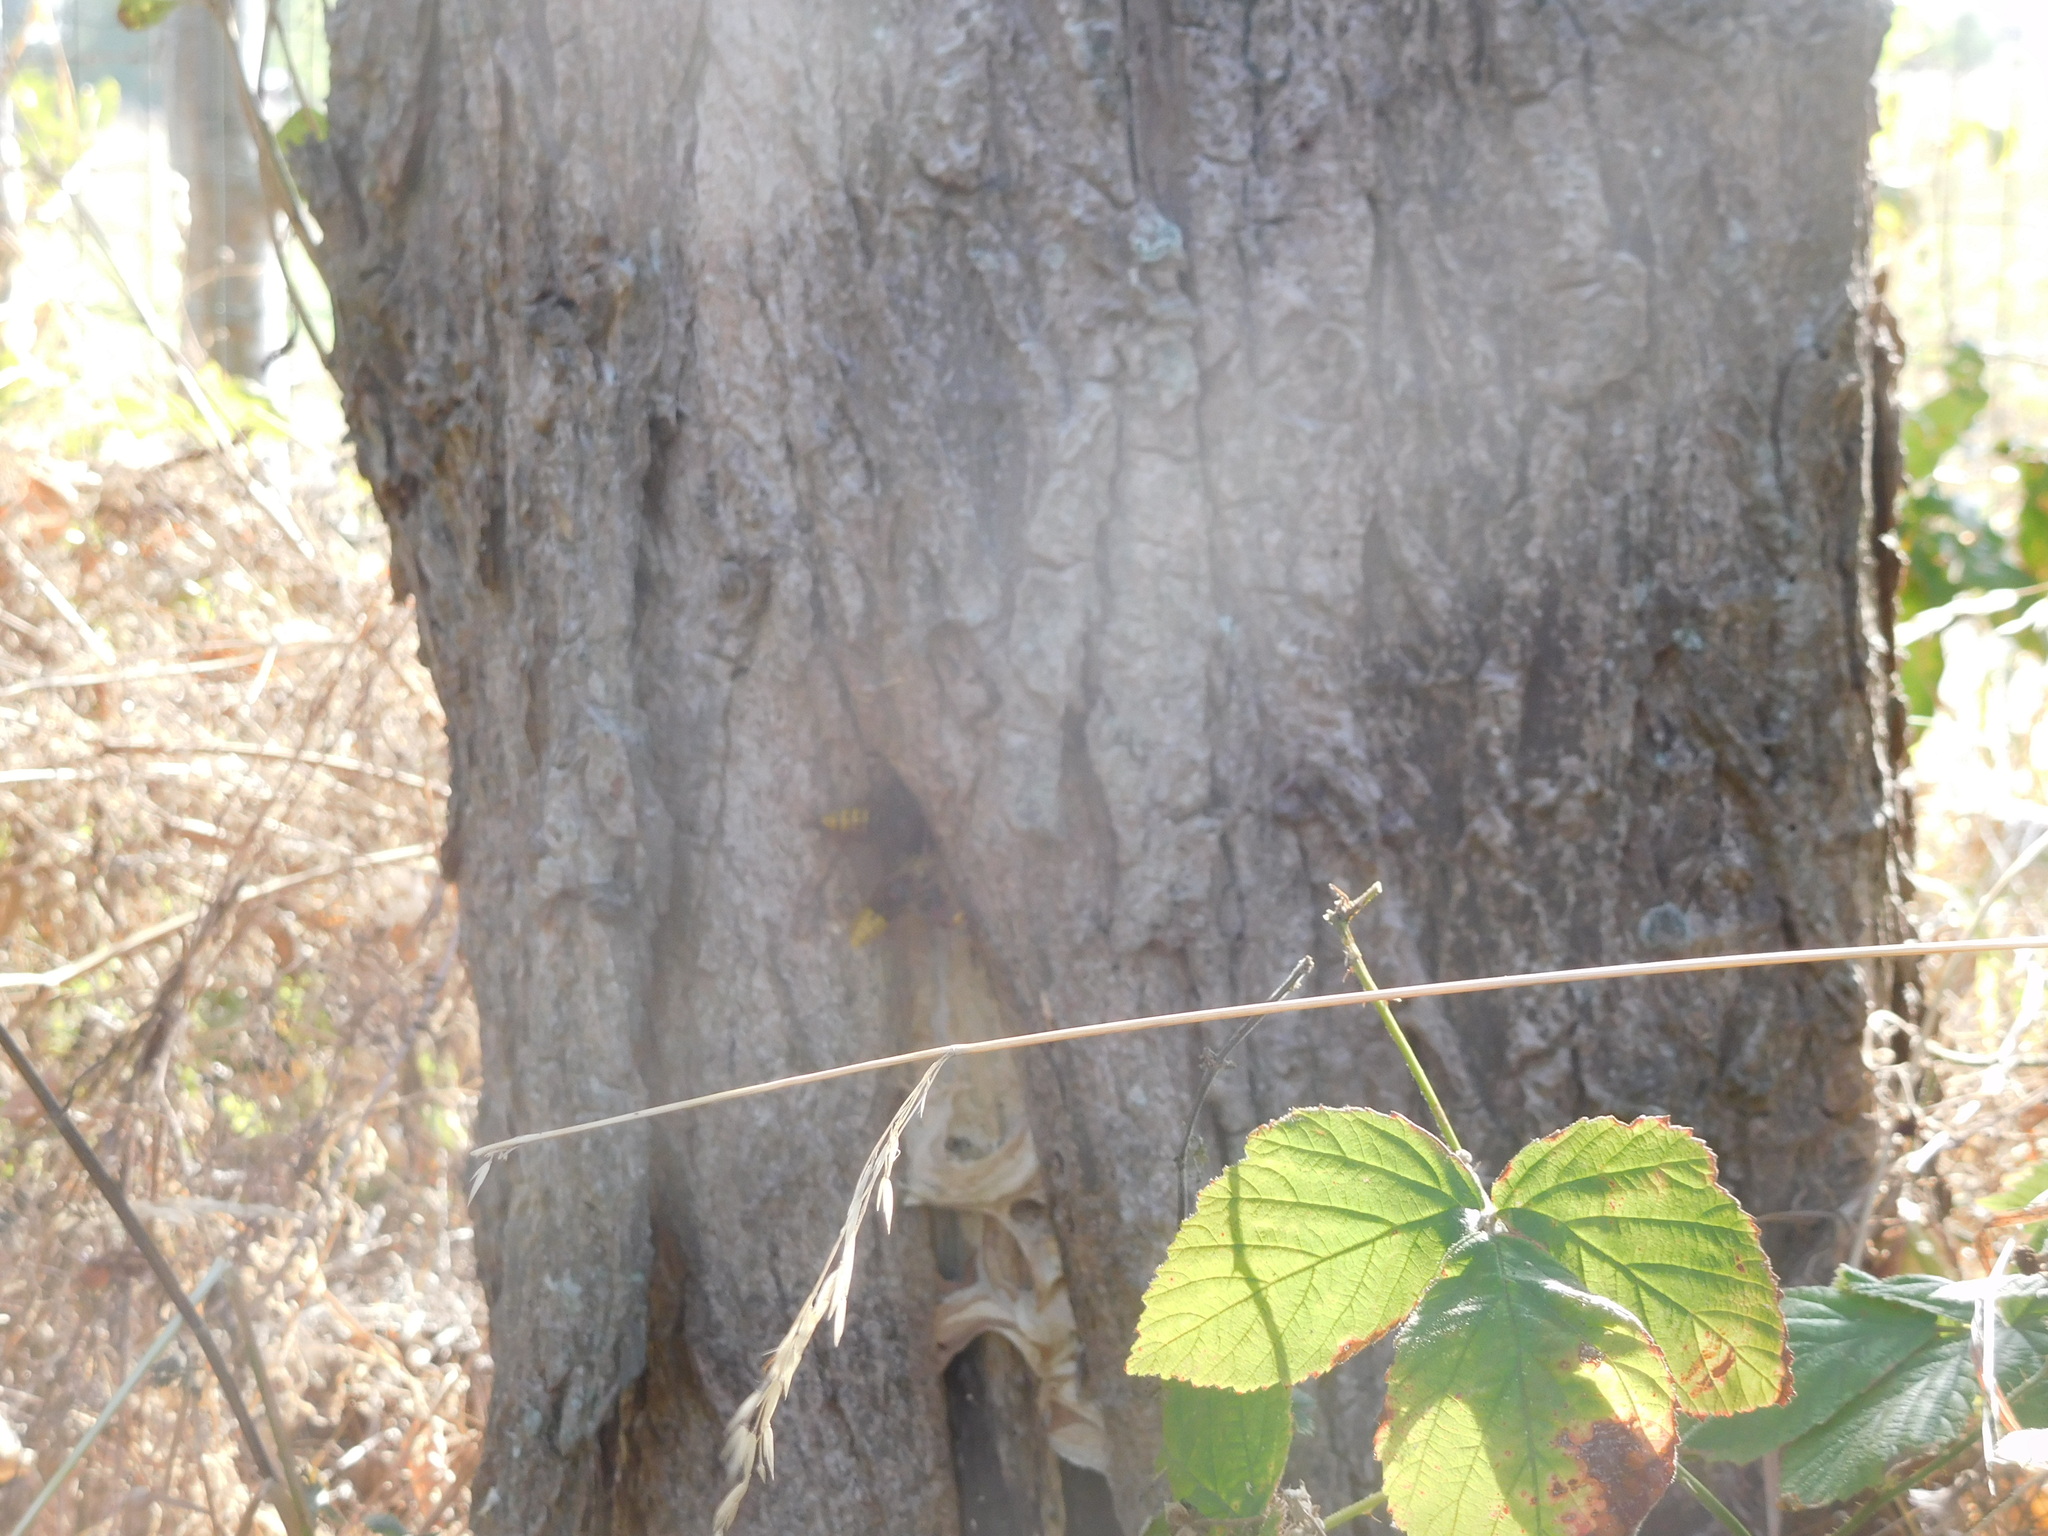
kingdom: Animalia
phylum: Arthropoda
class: Insecta
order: Hymenoptera
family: Vespidae
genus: Vespa
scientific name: Vespa crabro
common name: Hornet
